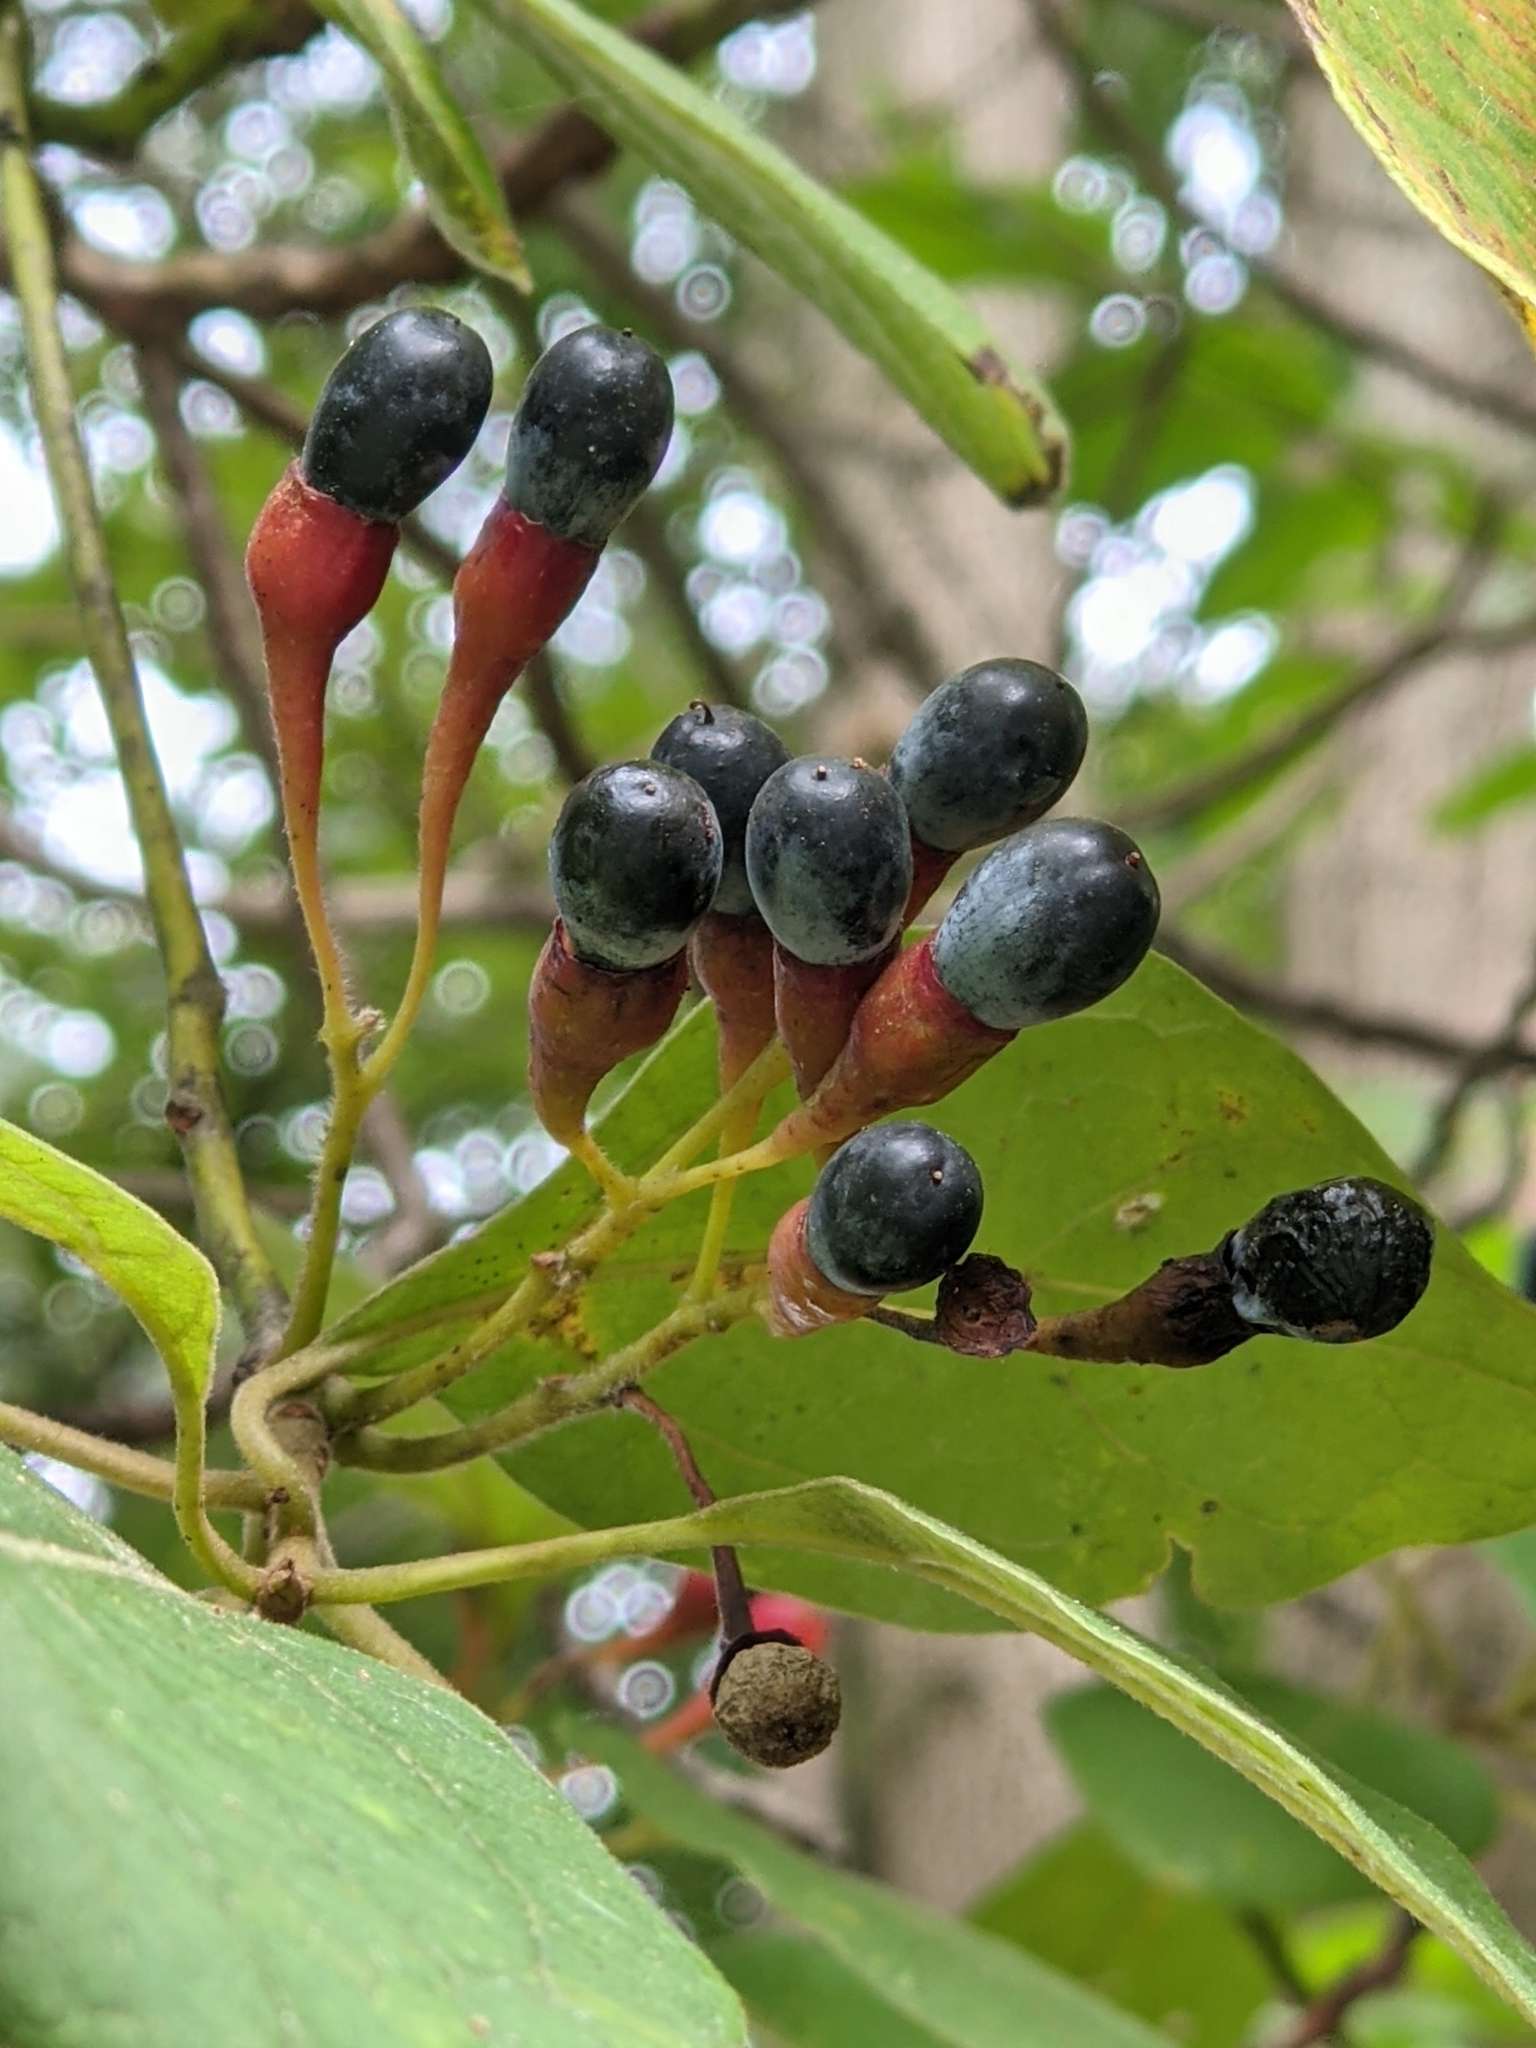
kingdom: Plantae
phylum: Tracheophyta
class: Magnoliopsida
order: Laurales
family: Lauraceae
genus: Sassafras
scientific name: Sassafras albidum
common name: Sassafras
